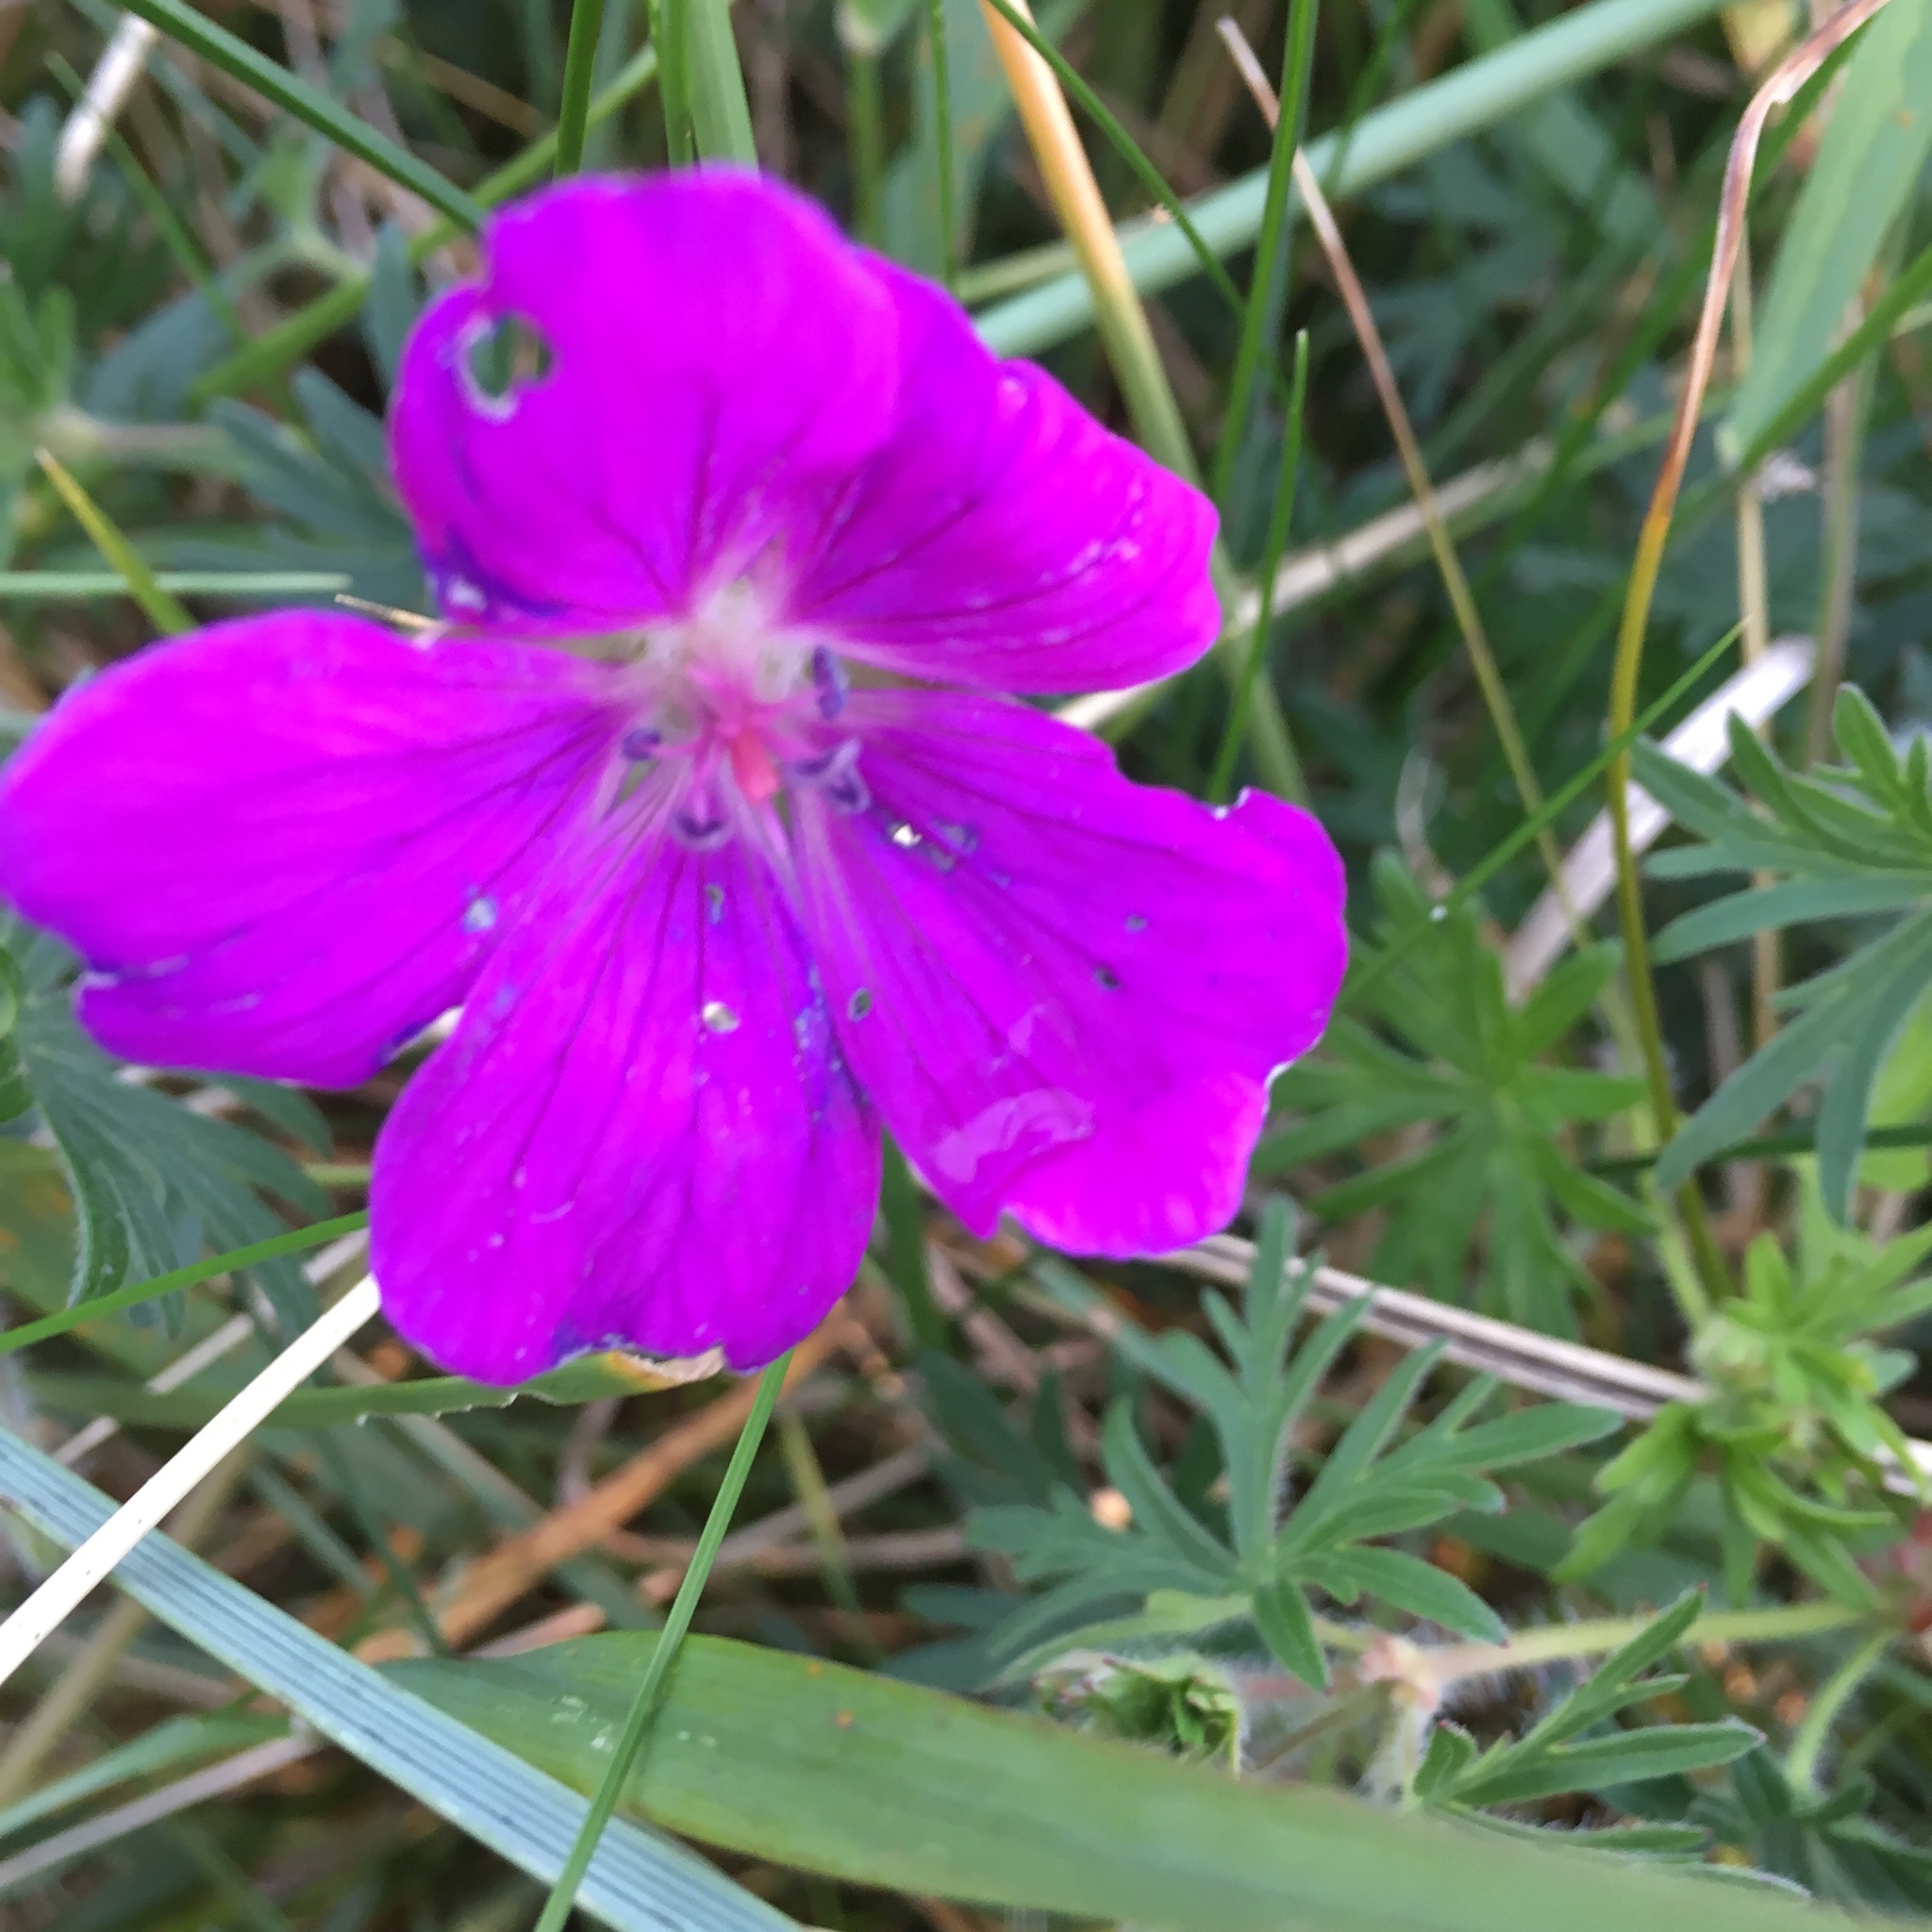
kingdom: Plantae
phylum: Tracheophyta
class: Magnoliopsida
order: Geraniales
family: Geraniaceae
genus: Geranium
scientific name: Geranium sanguineum
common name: Bloody crane's-bill
